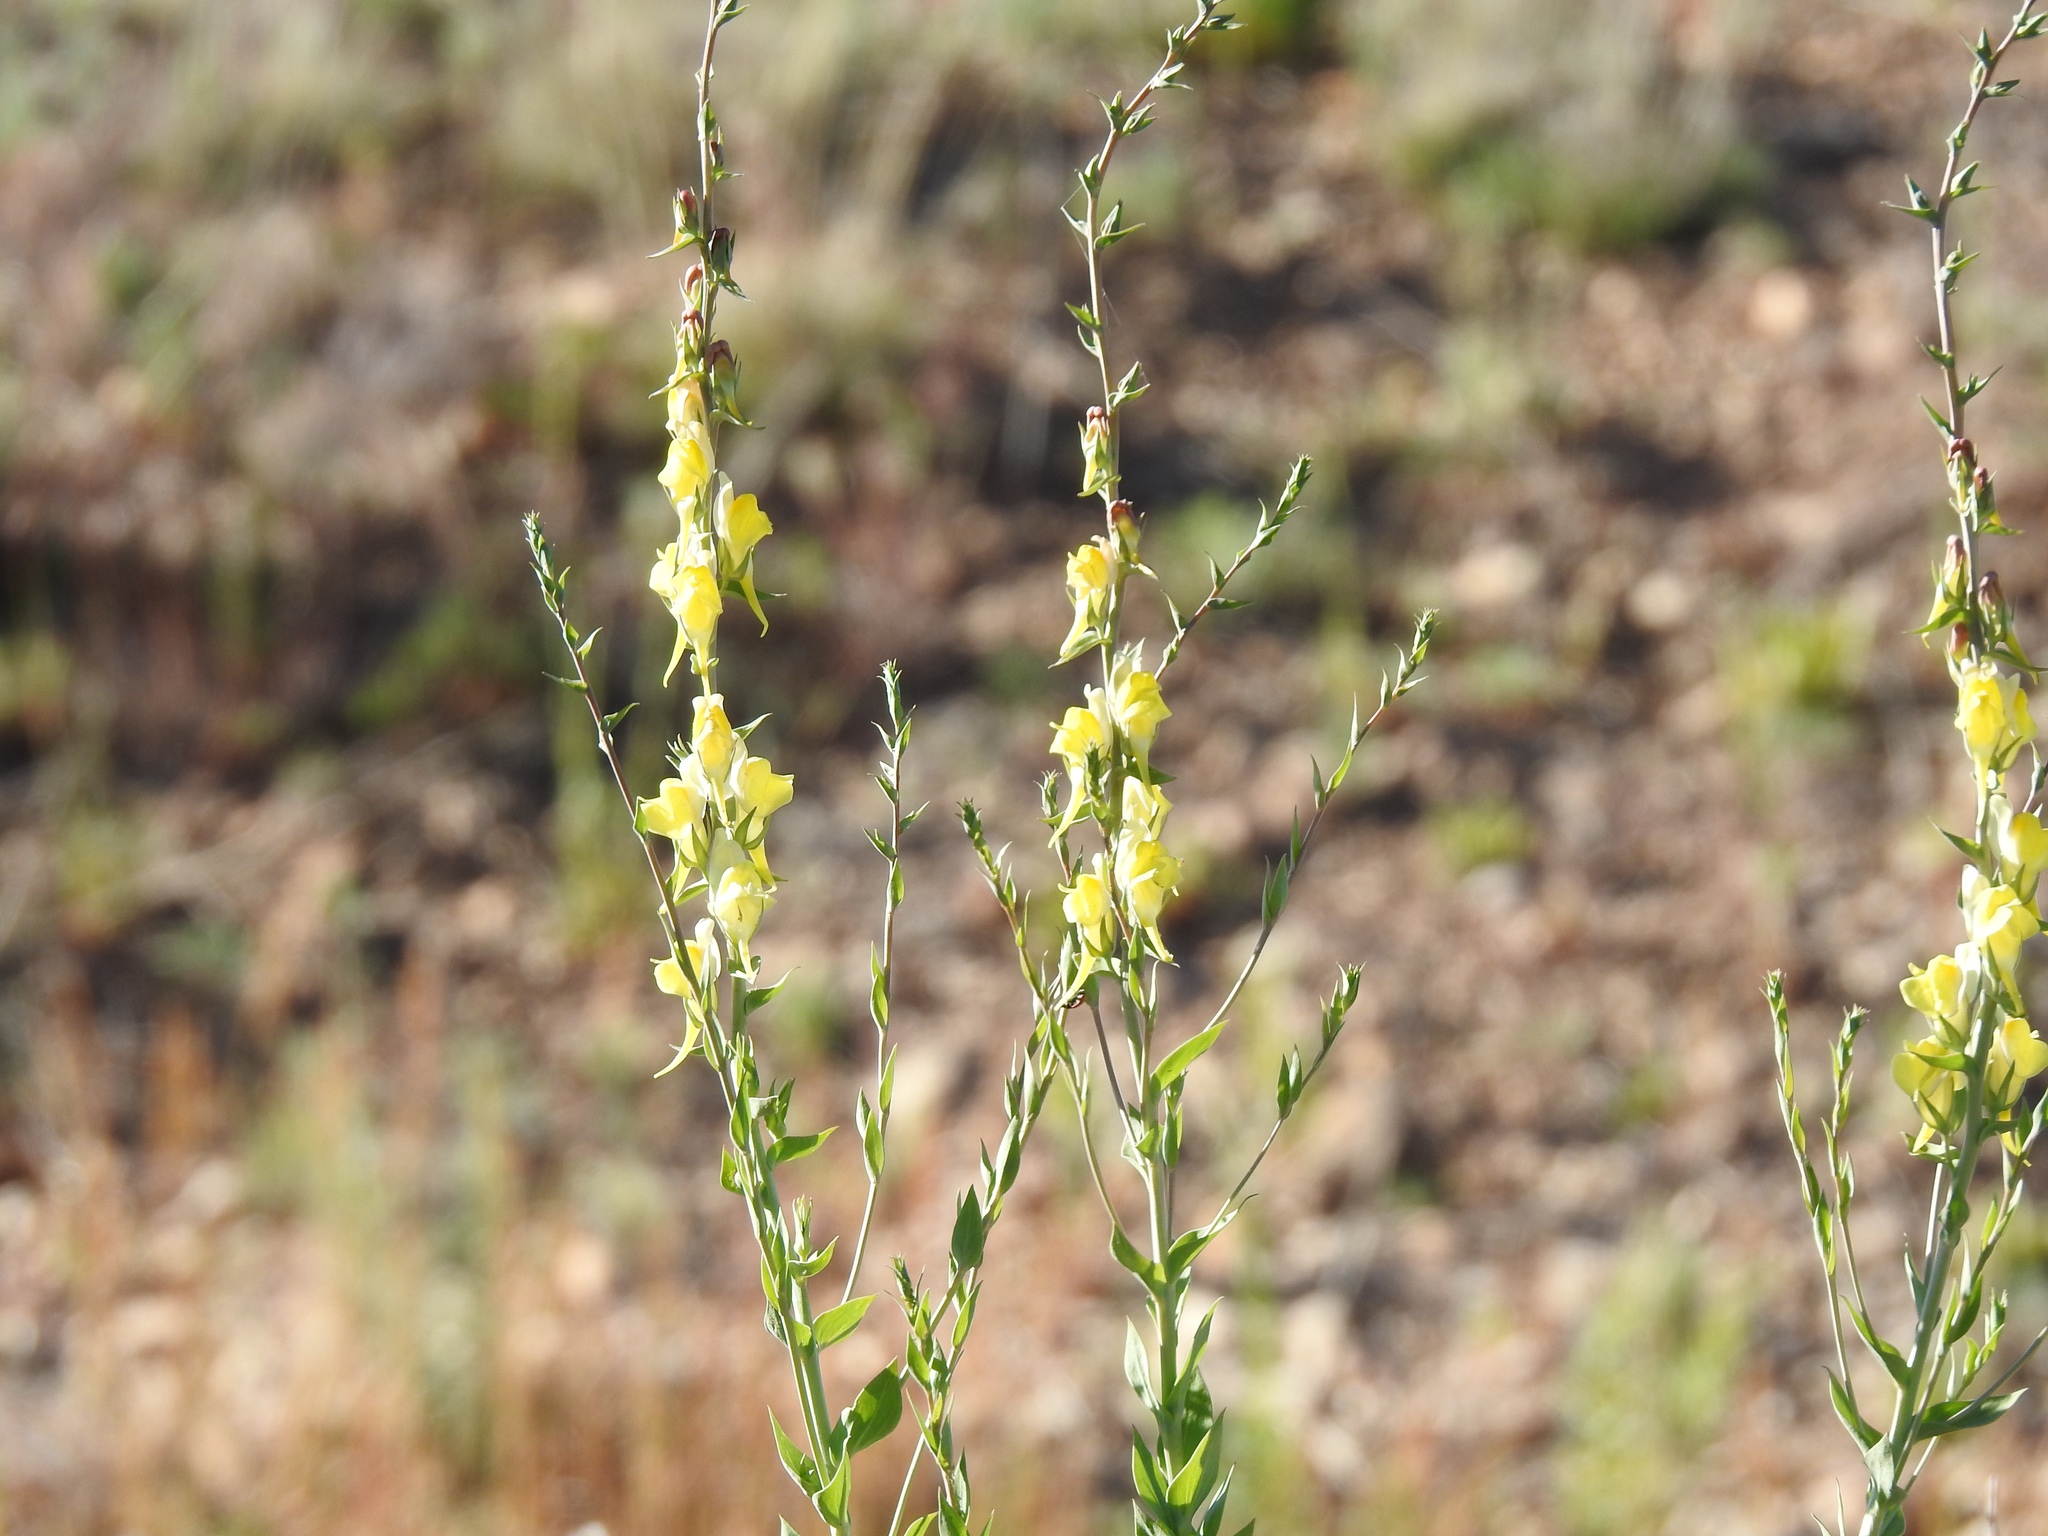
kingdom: Plantae
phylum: Tracheophyta
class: Magnoliopsida
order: Lamiales
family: Plantaginaceae
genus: Linaria
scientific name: Linaria dalmatica
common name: Dalmatian toadflax
